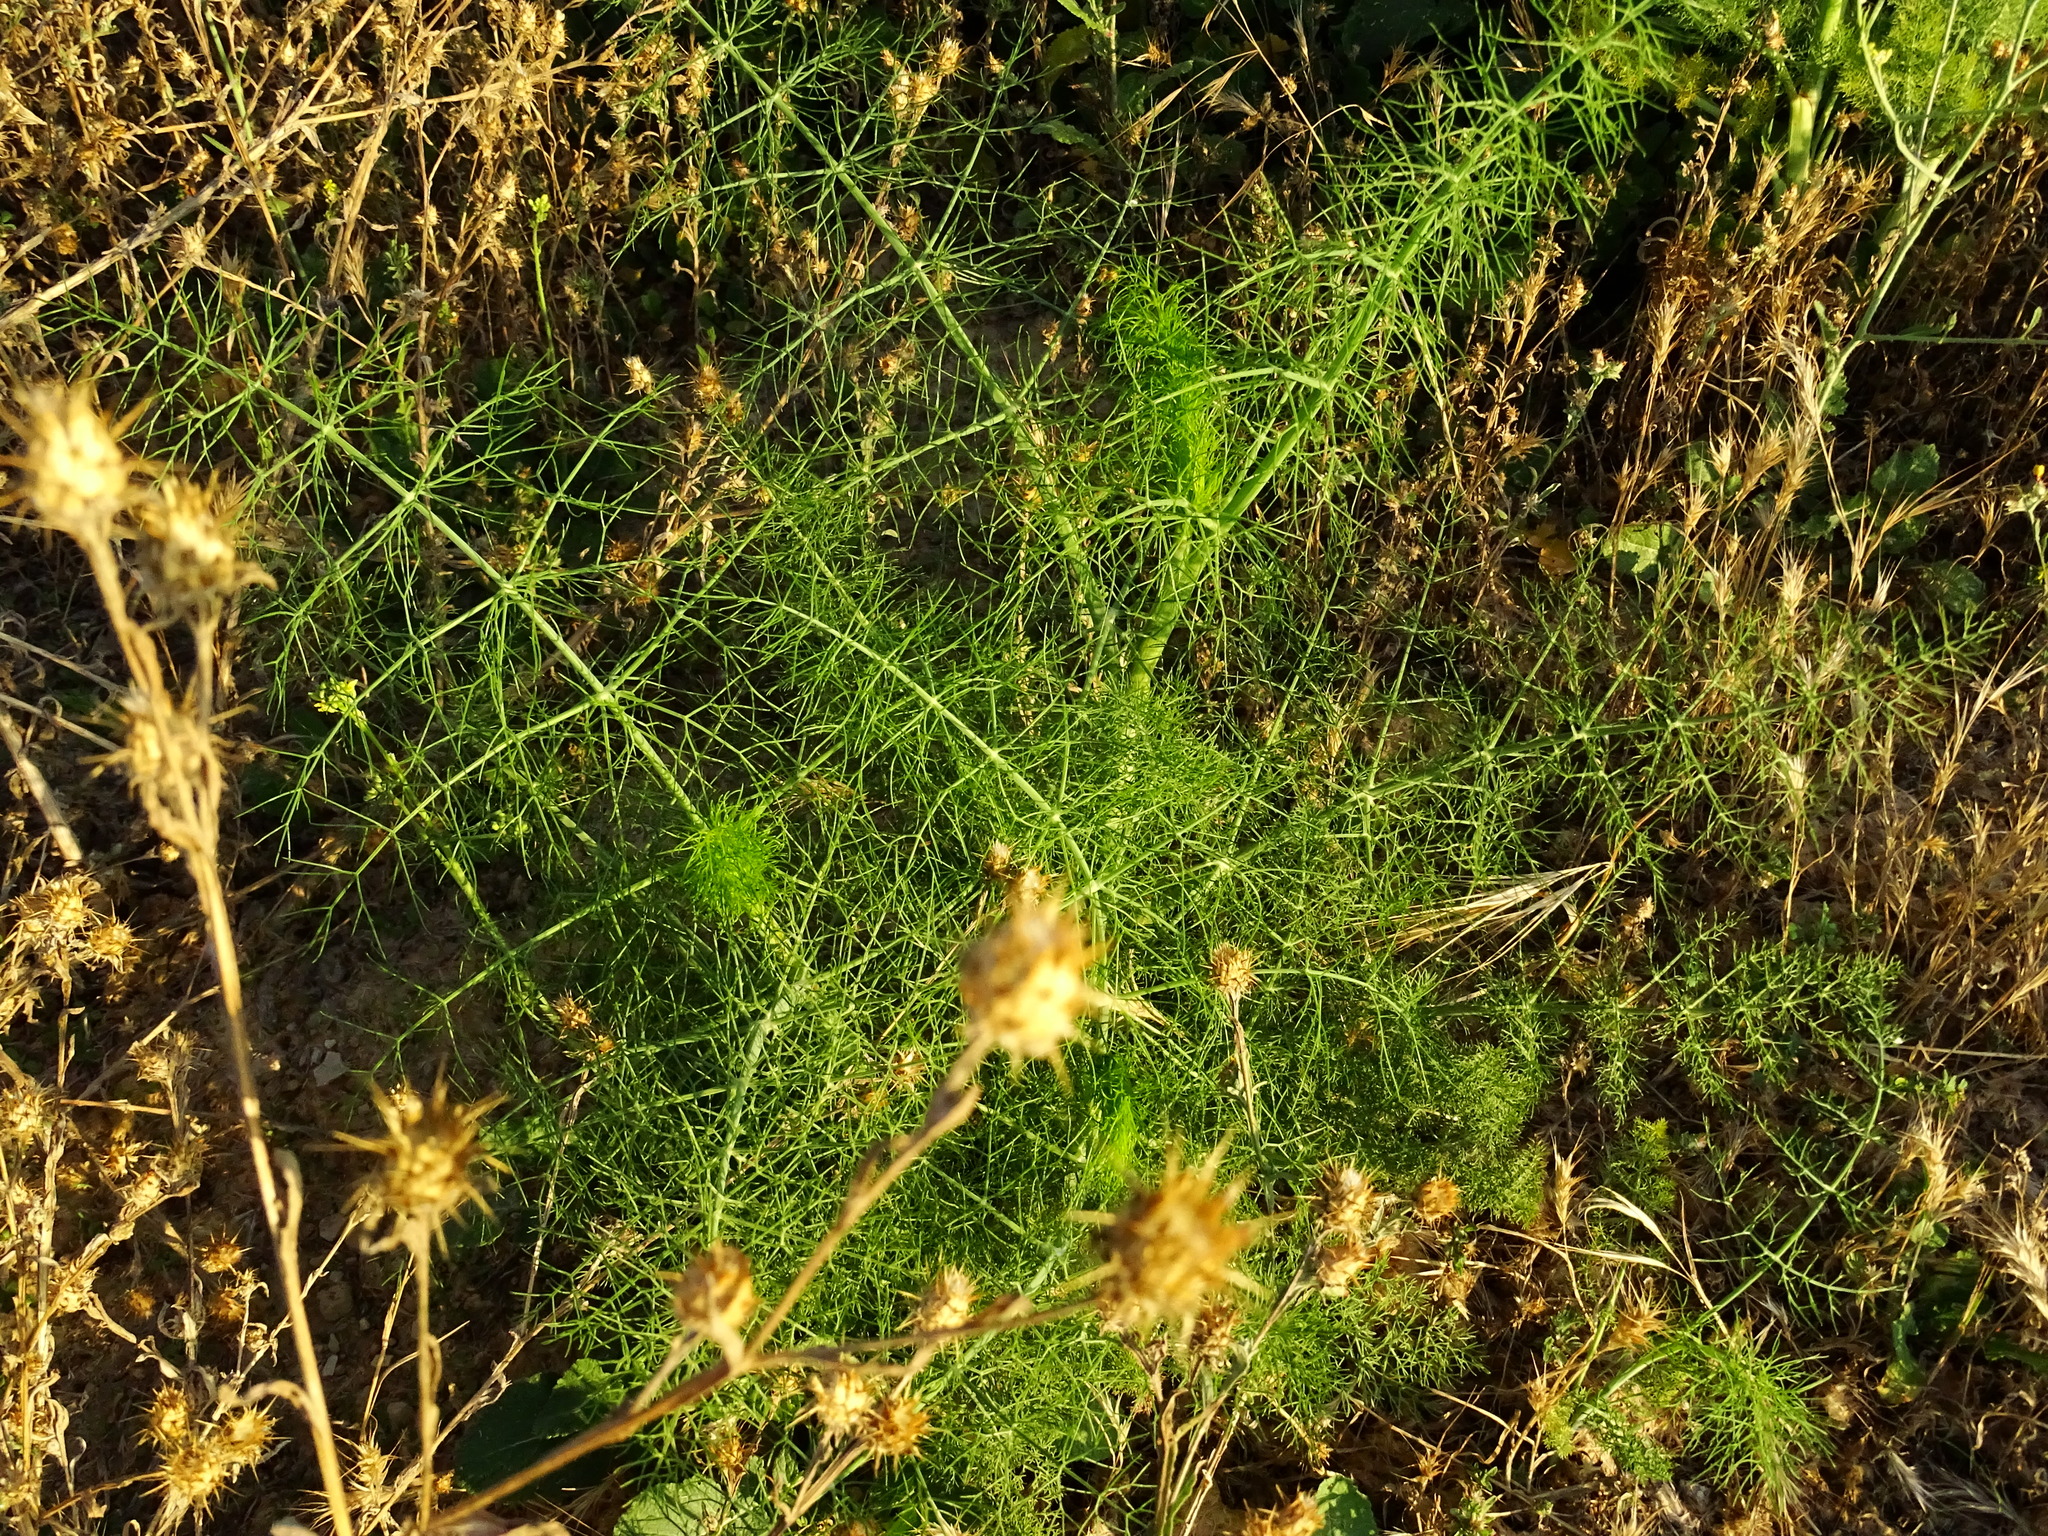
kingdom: Plantae
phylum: Tracheophyta
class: Magnoliopsida
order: Apiales
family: Apiaceae
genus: Foeniculum
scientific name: Foeniculum vulgare
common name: Fennel
